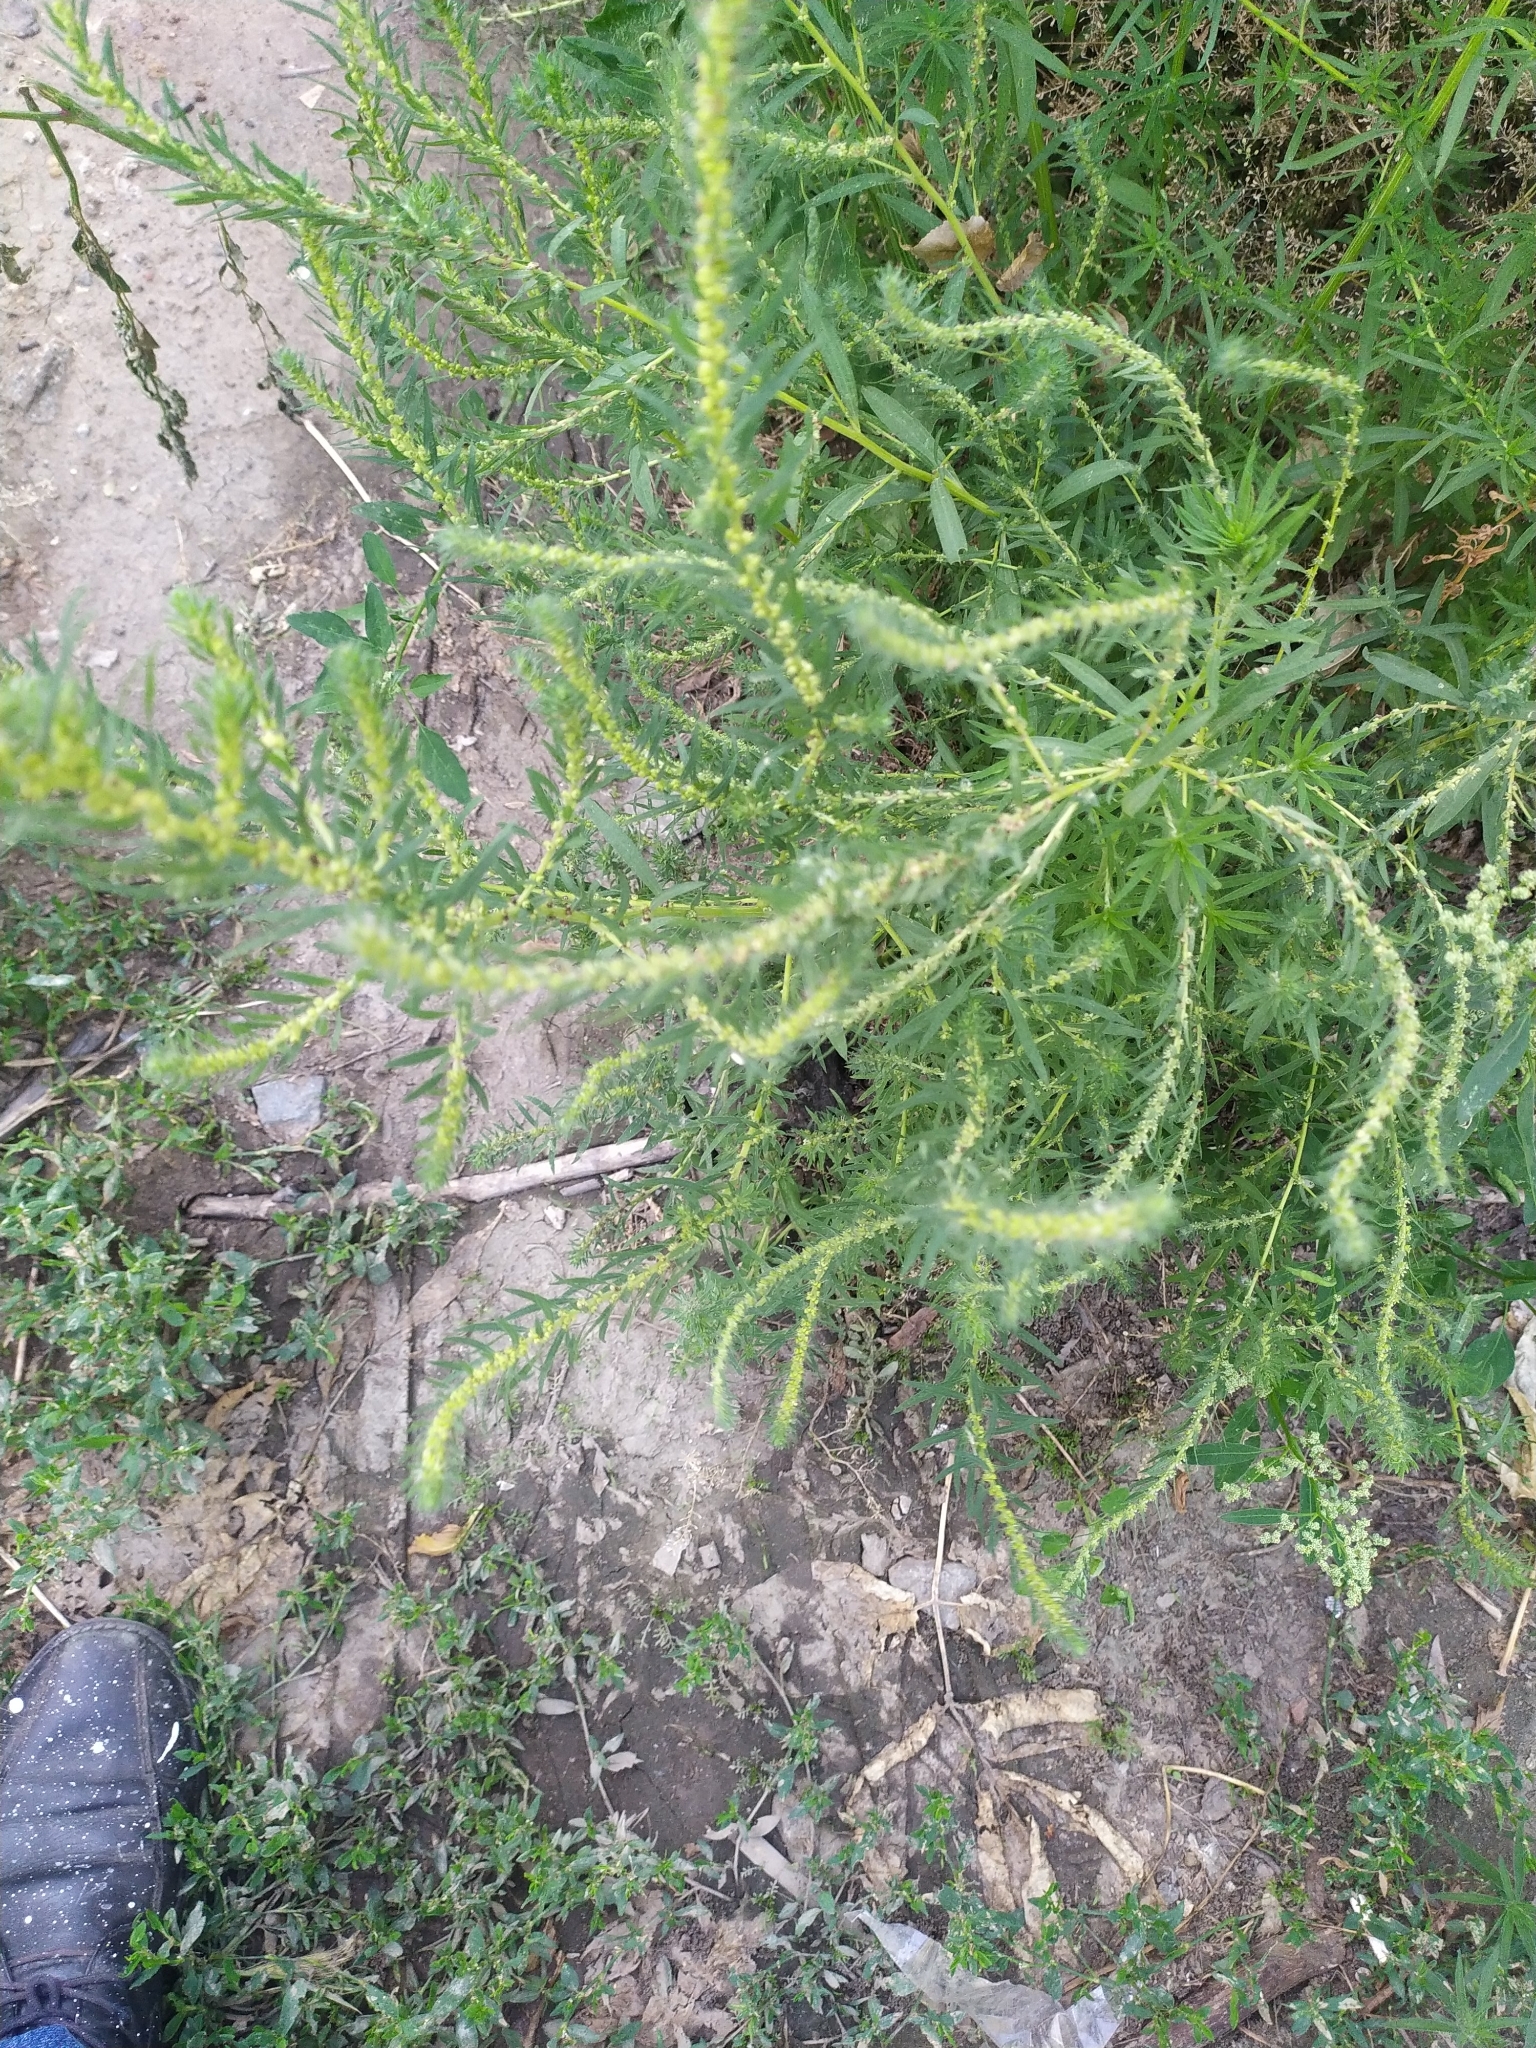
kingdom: Plantae
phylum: Tracheophyta
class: Magnoliopsida
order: Caryophyllales
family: Amaranthaceae
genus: Bassia
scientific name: Bassia scoparia
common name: Belvedere
